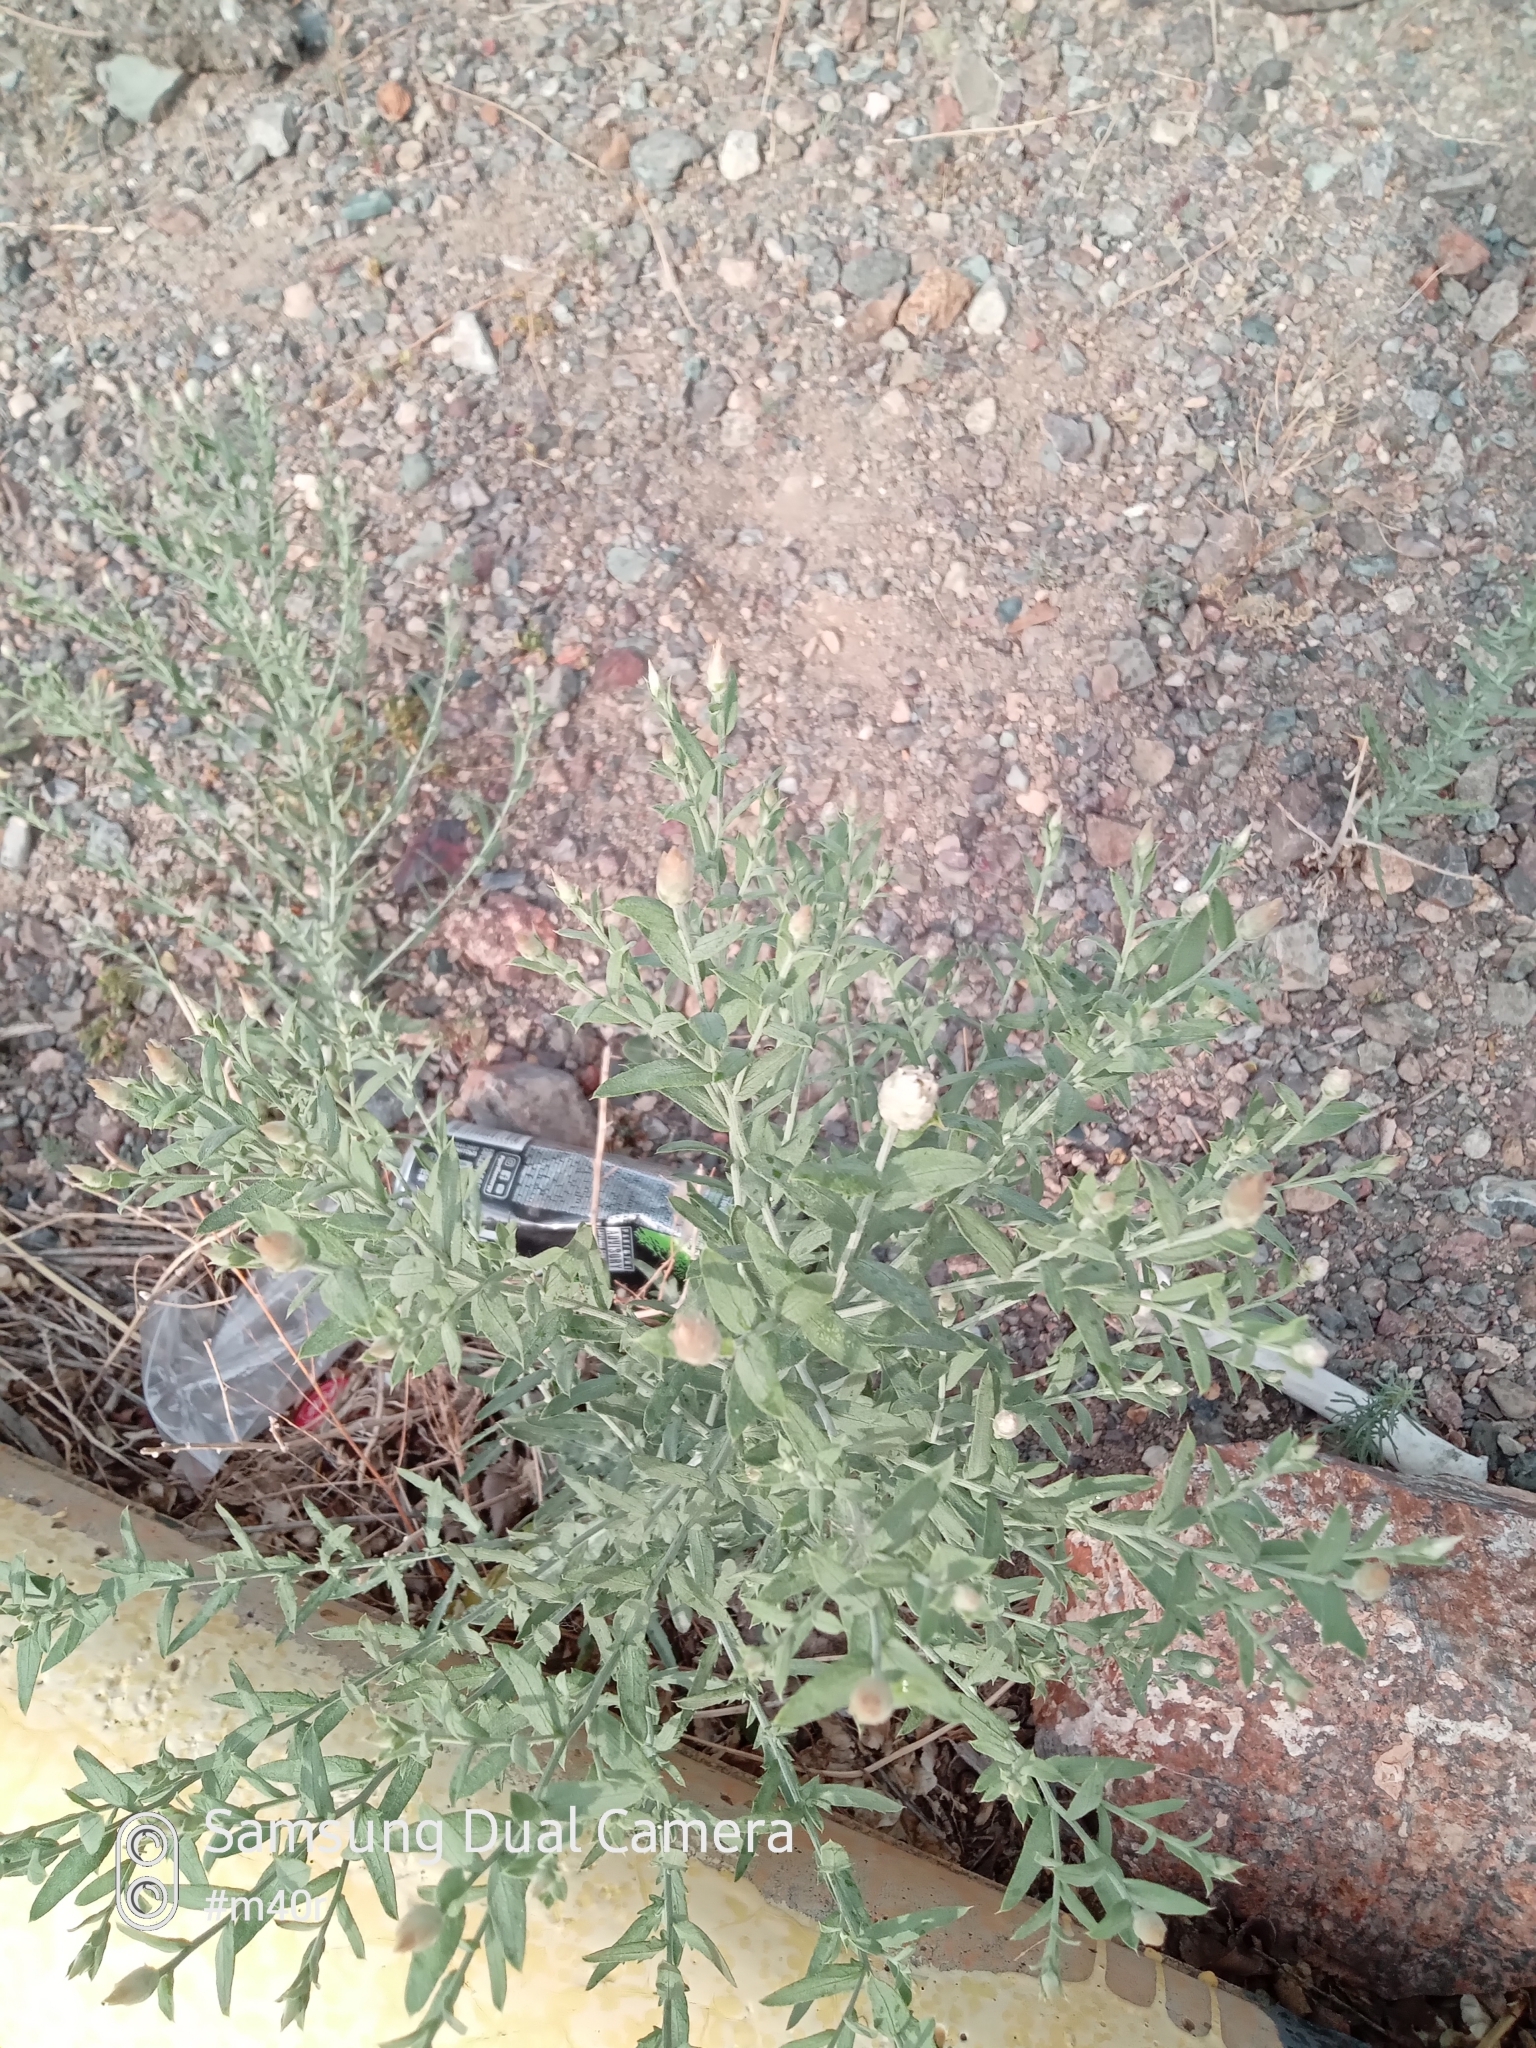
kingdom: Plantae
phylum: Tracheophyta
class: Magnoliopsida
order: Asterales
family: Asteraceae
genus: Leuzea
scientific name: Leuzea repens
